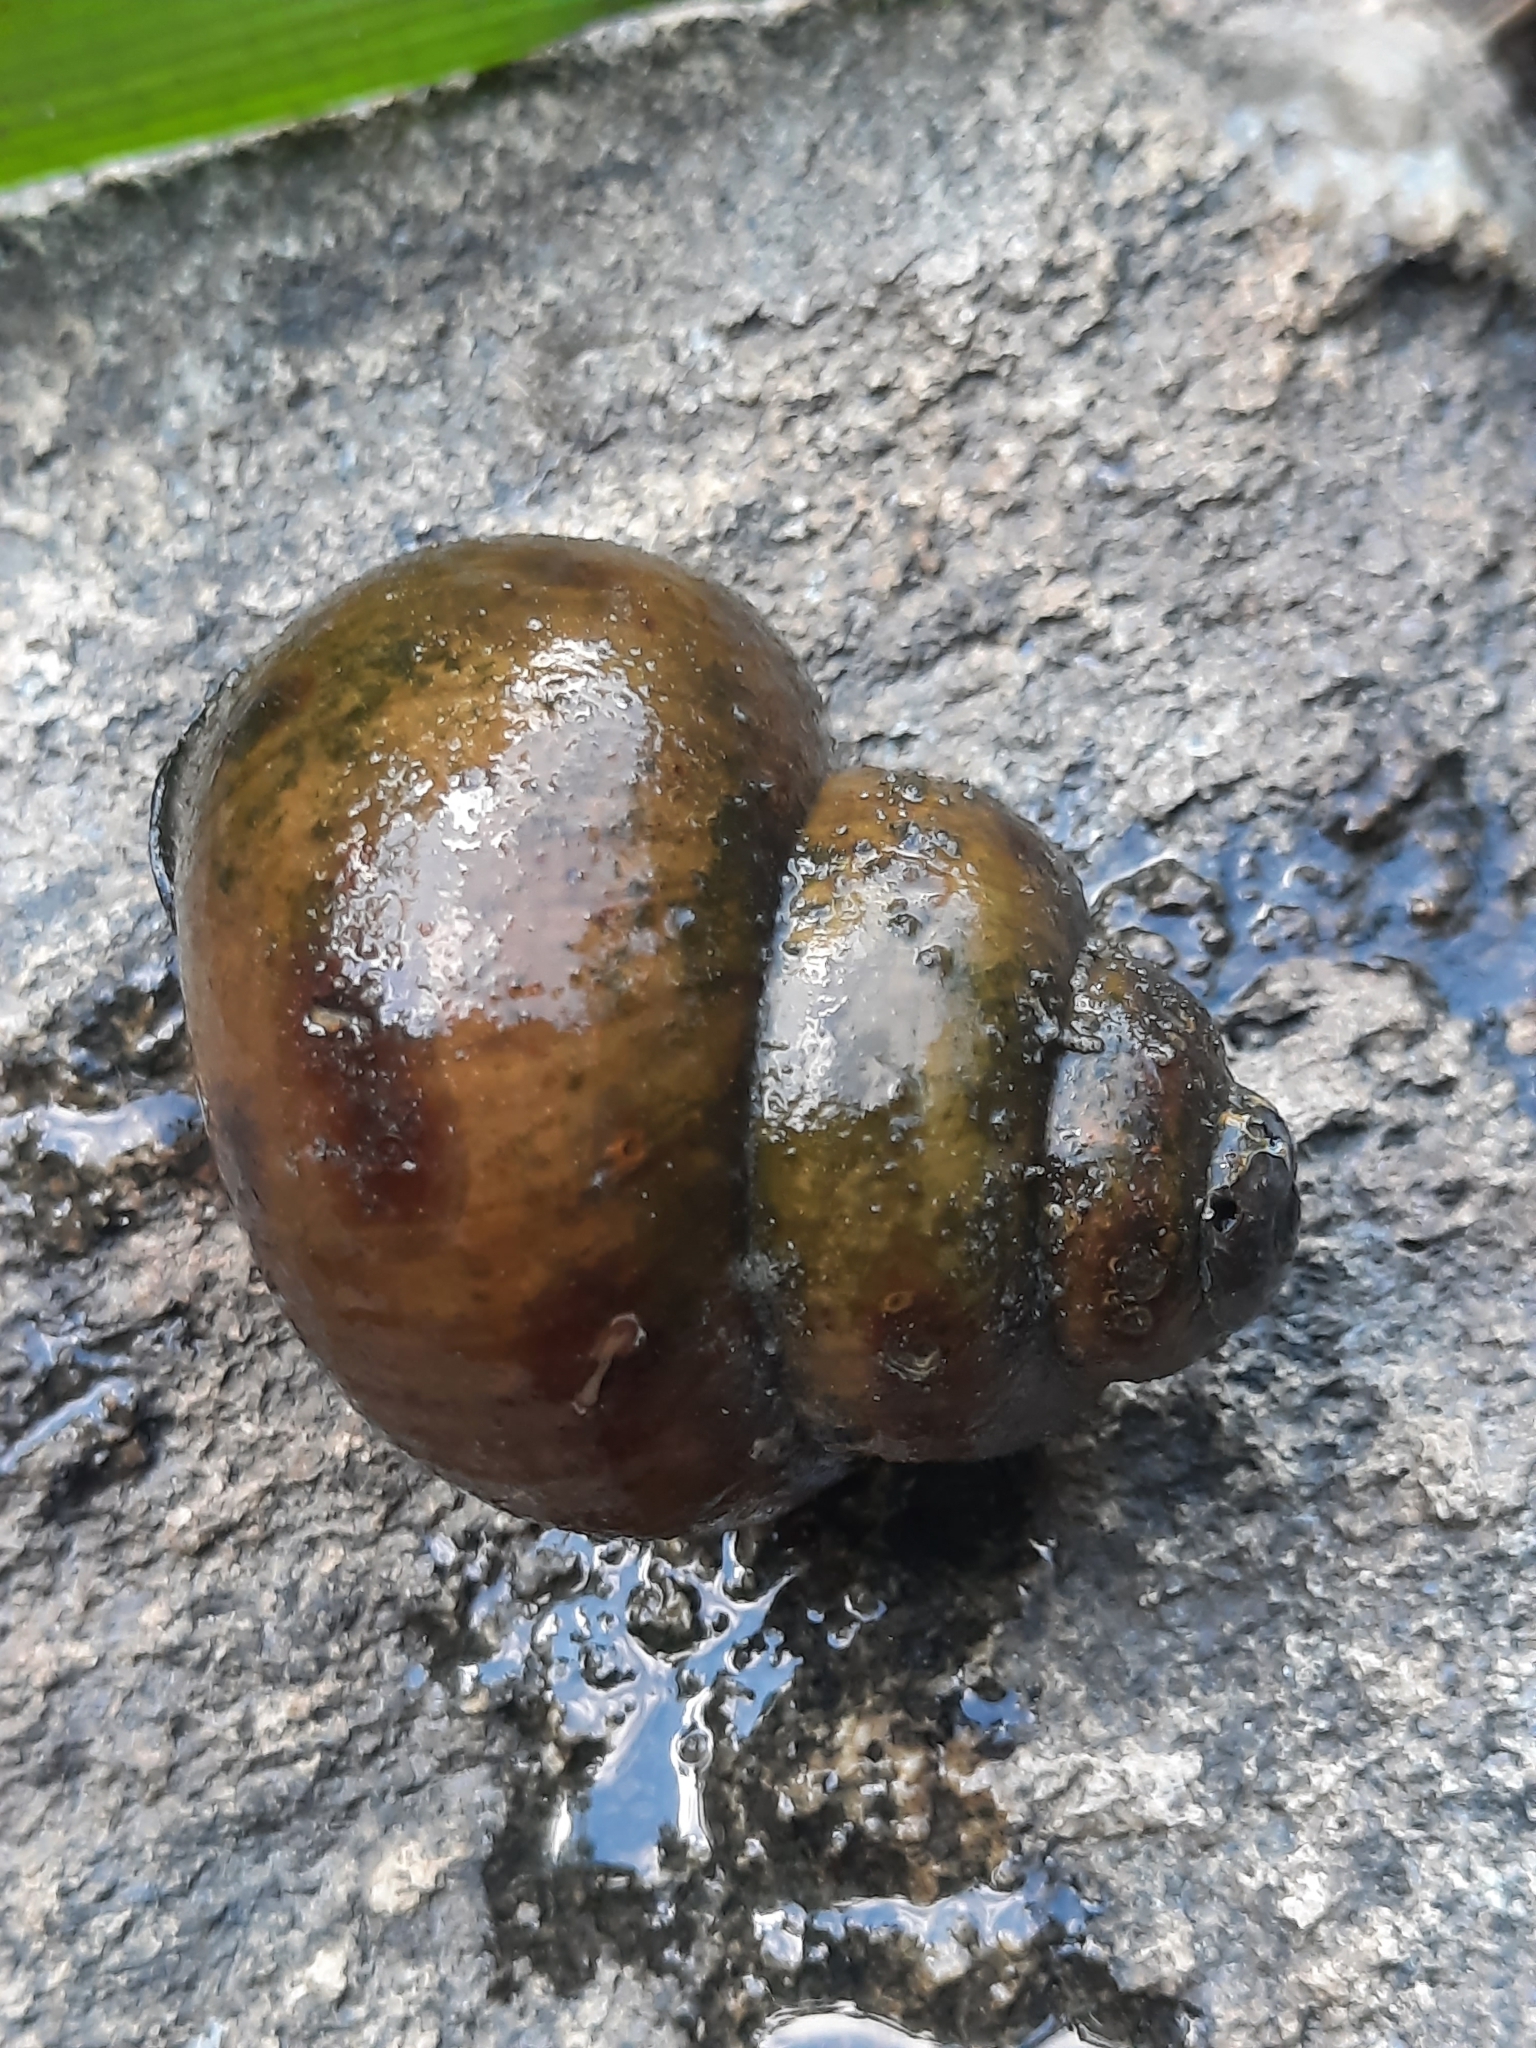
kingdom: Animalia
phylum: Mollusca
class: Gastropoda
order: Architaenioglossa
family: Viviparidae
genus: Cipangopaludina
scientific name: Cipangopaludina chinensis
